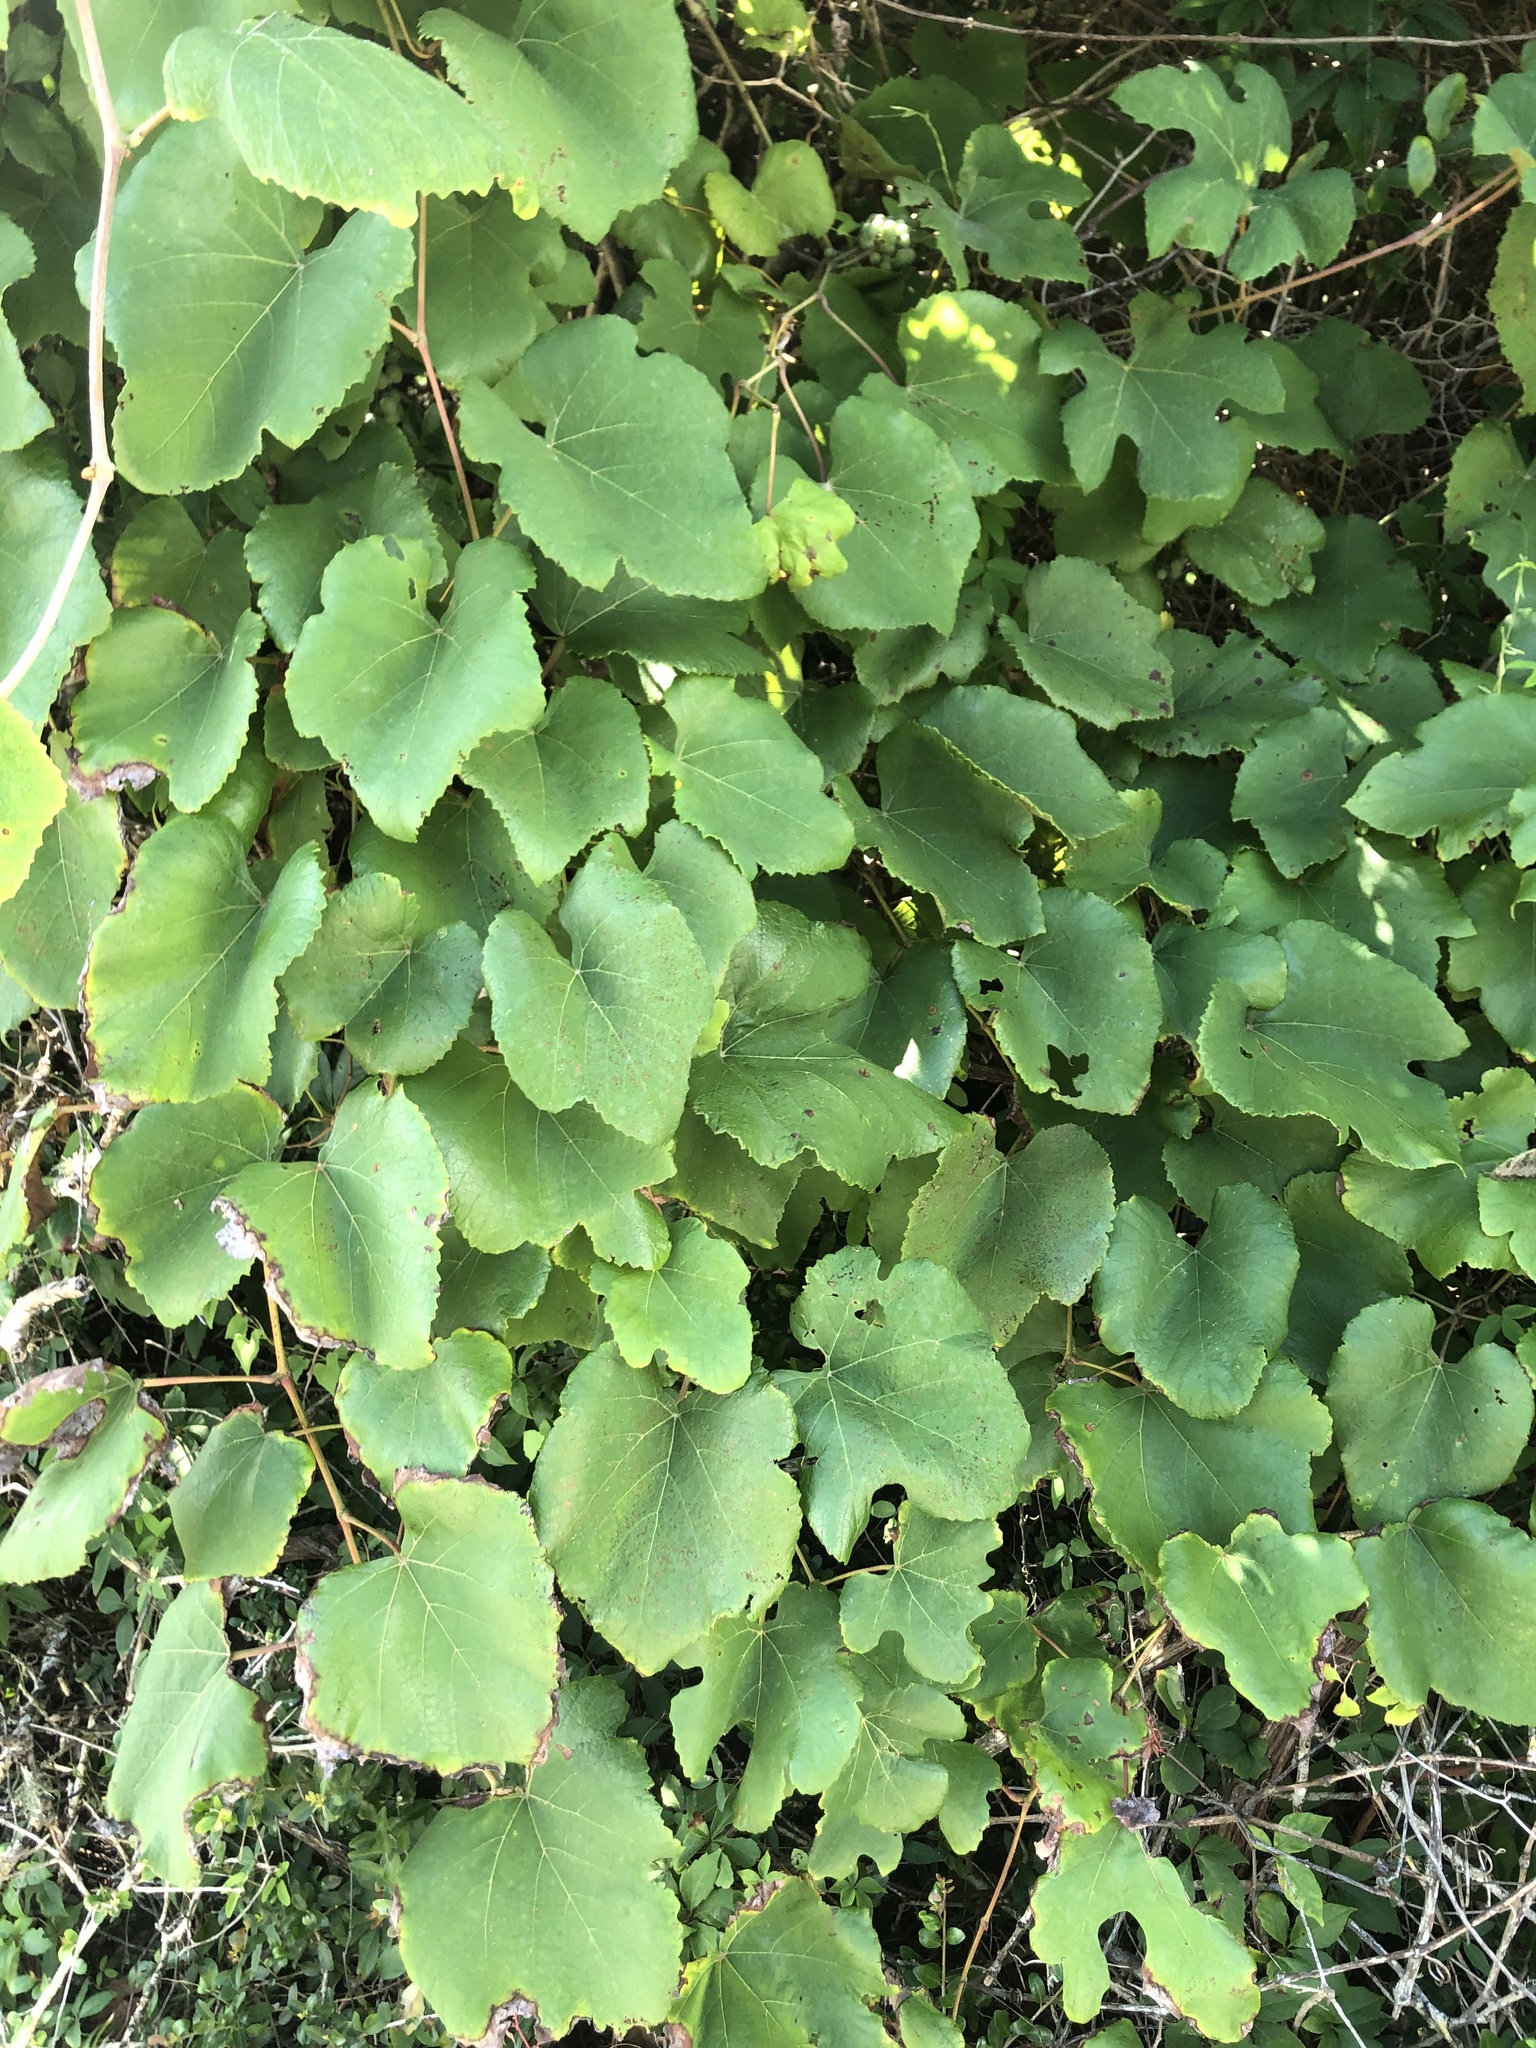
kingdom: Plantae
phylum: Tracheophyta
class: Magnoliopsida
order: Vitales
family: Vitaceae
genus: Vitis
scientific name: Vitis aestivalis
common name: Pigeon grape
